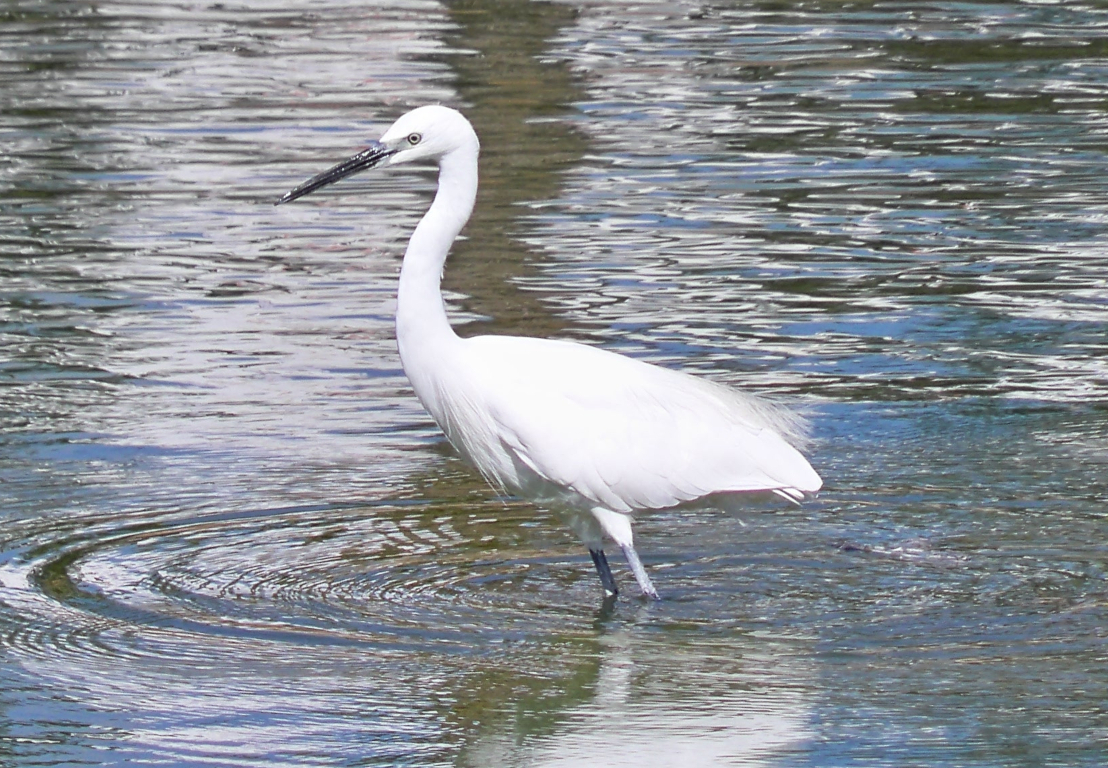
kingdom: Animalia
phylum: Chordata
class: Aves
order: Pelecaniformes
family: Ardeidae
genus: Egretta
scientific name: Egretta garzetta
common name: Little egret
